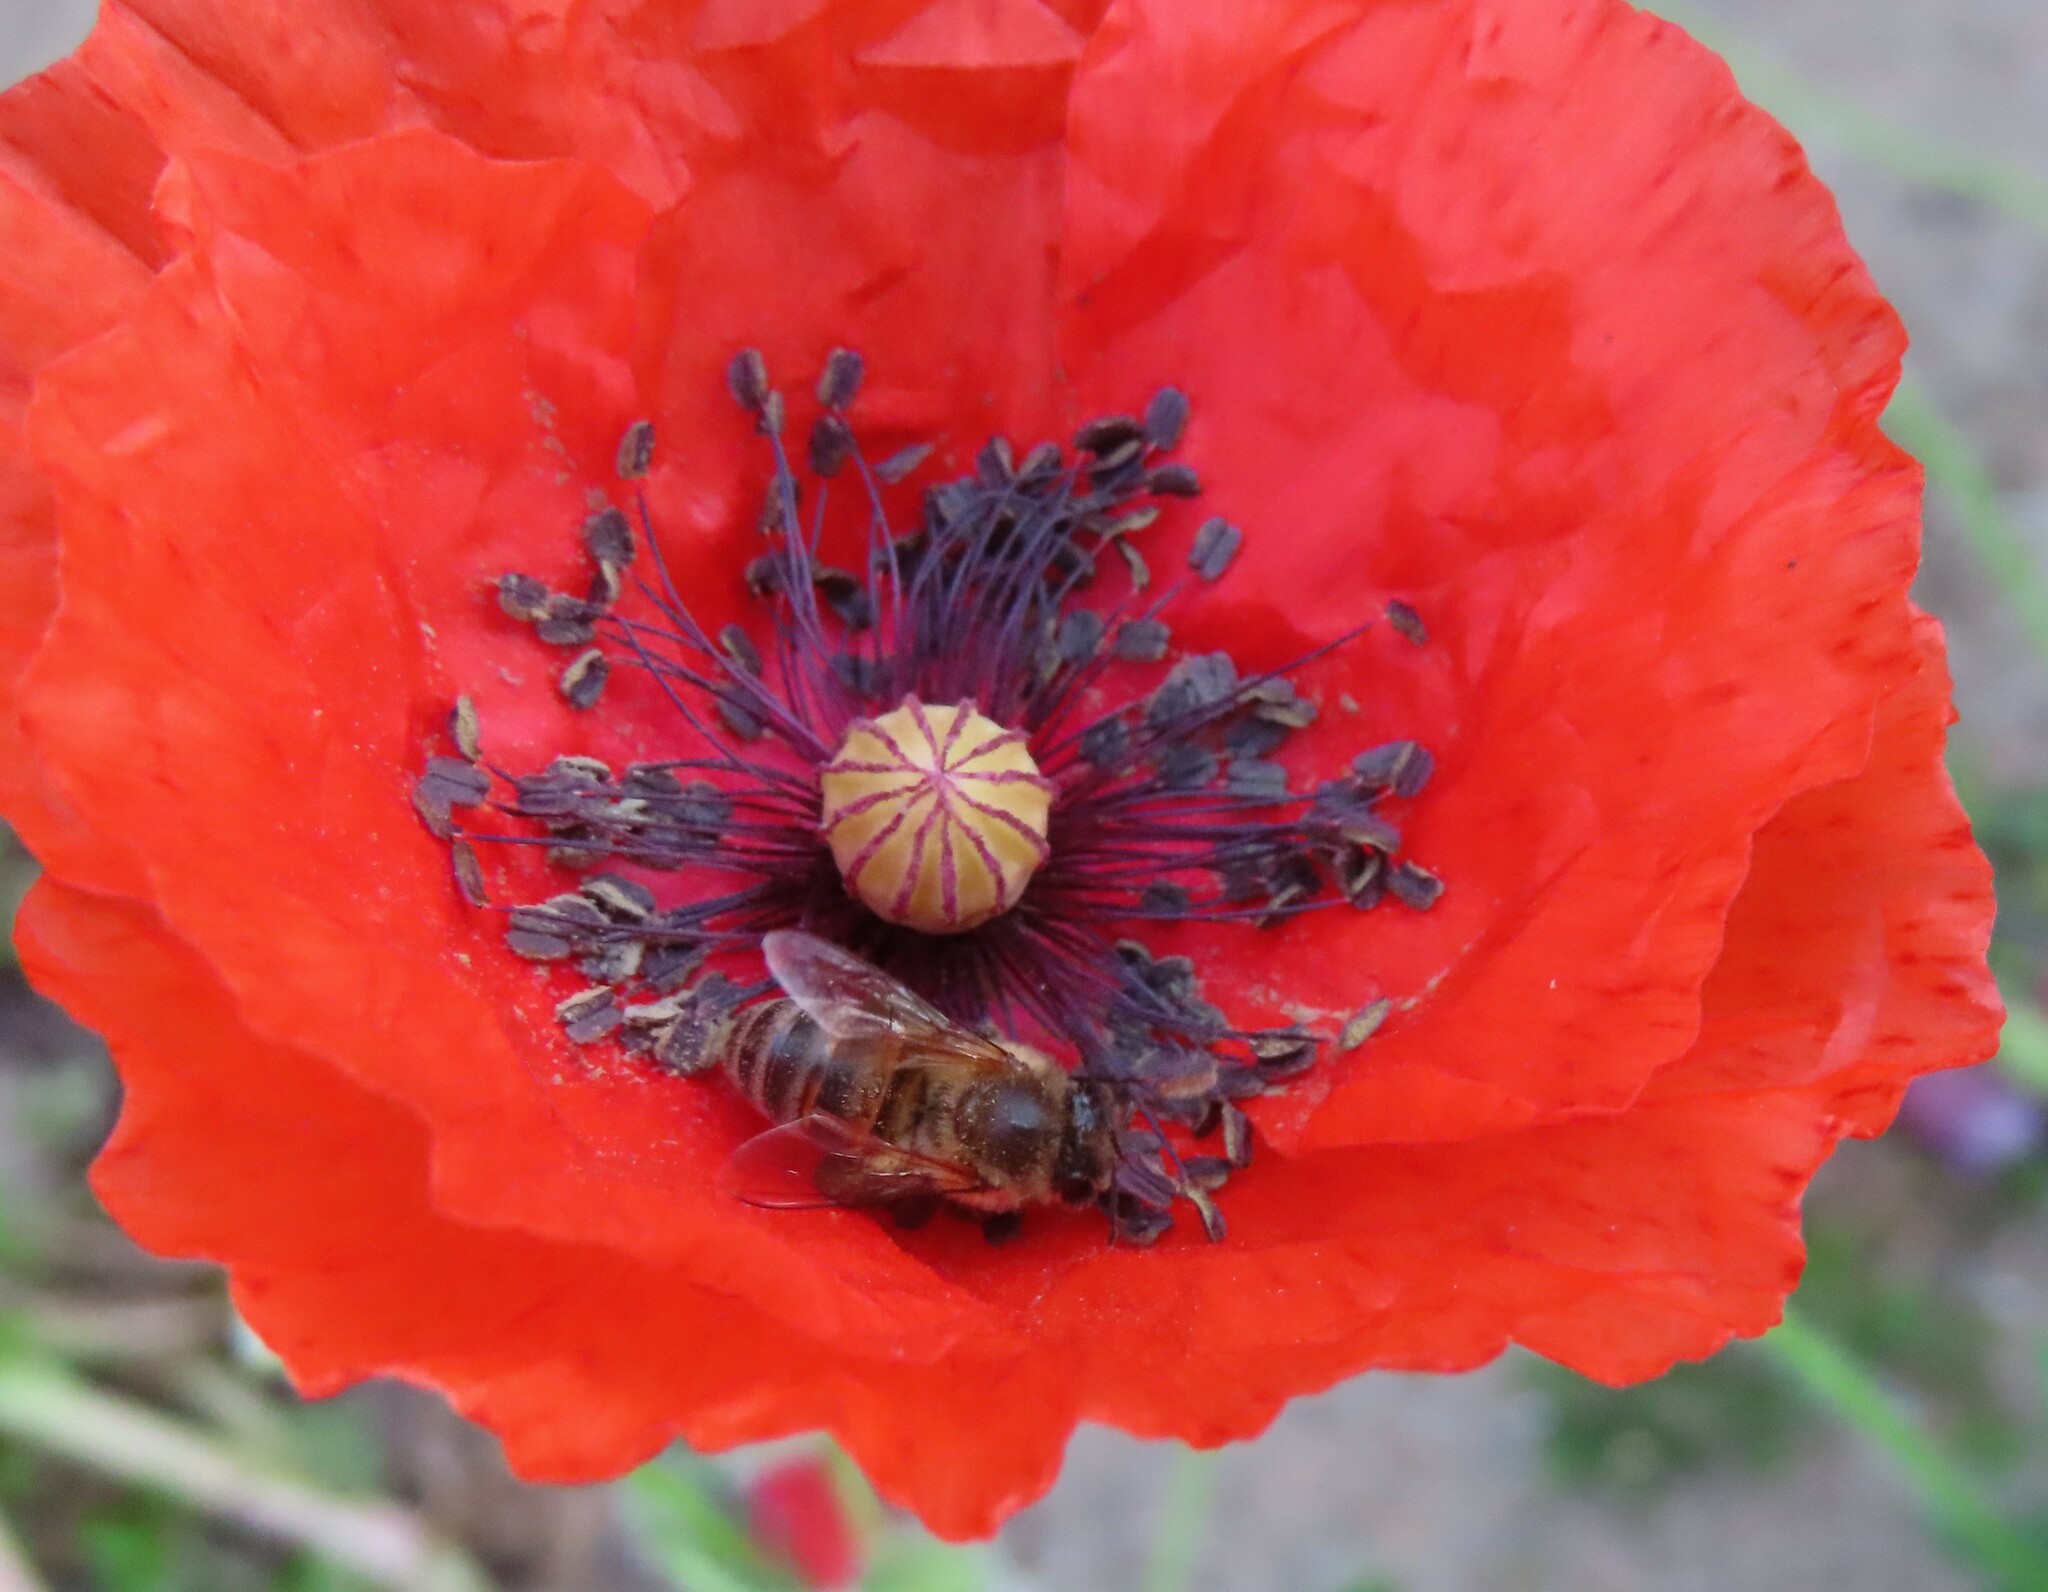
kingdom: Animalia
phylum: Arthropoda
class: Insecta
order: Hymenoptera
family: Apidae
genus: Apis
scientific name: Apis mellifera
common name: Honey bee
